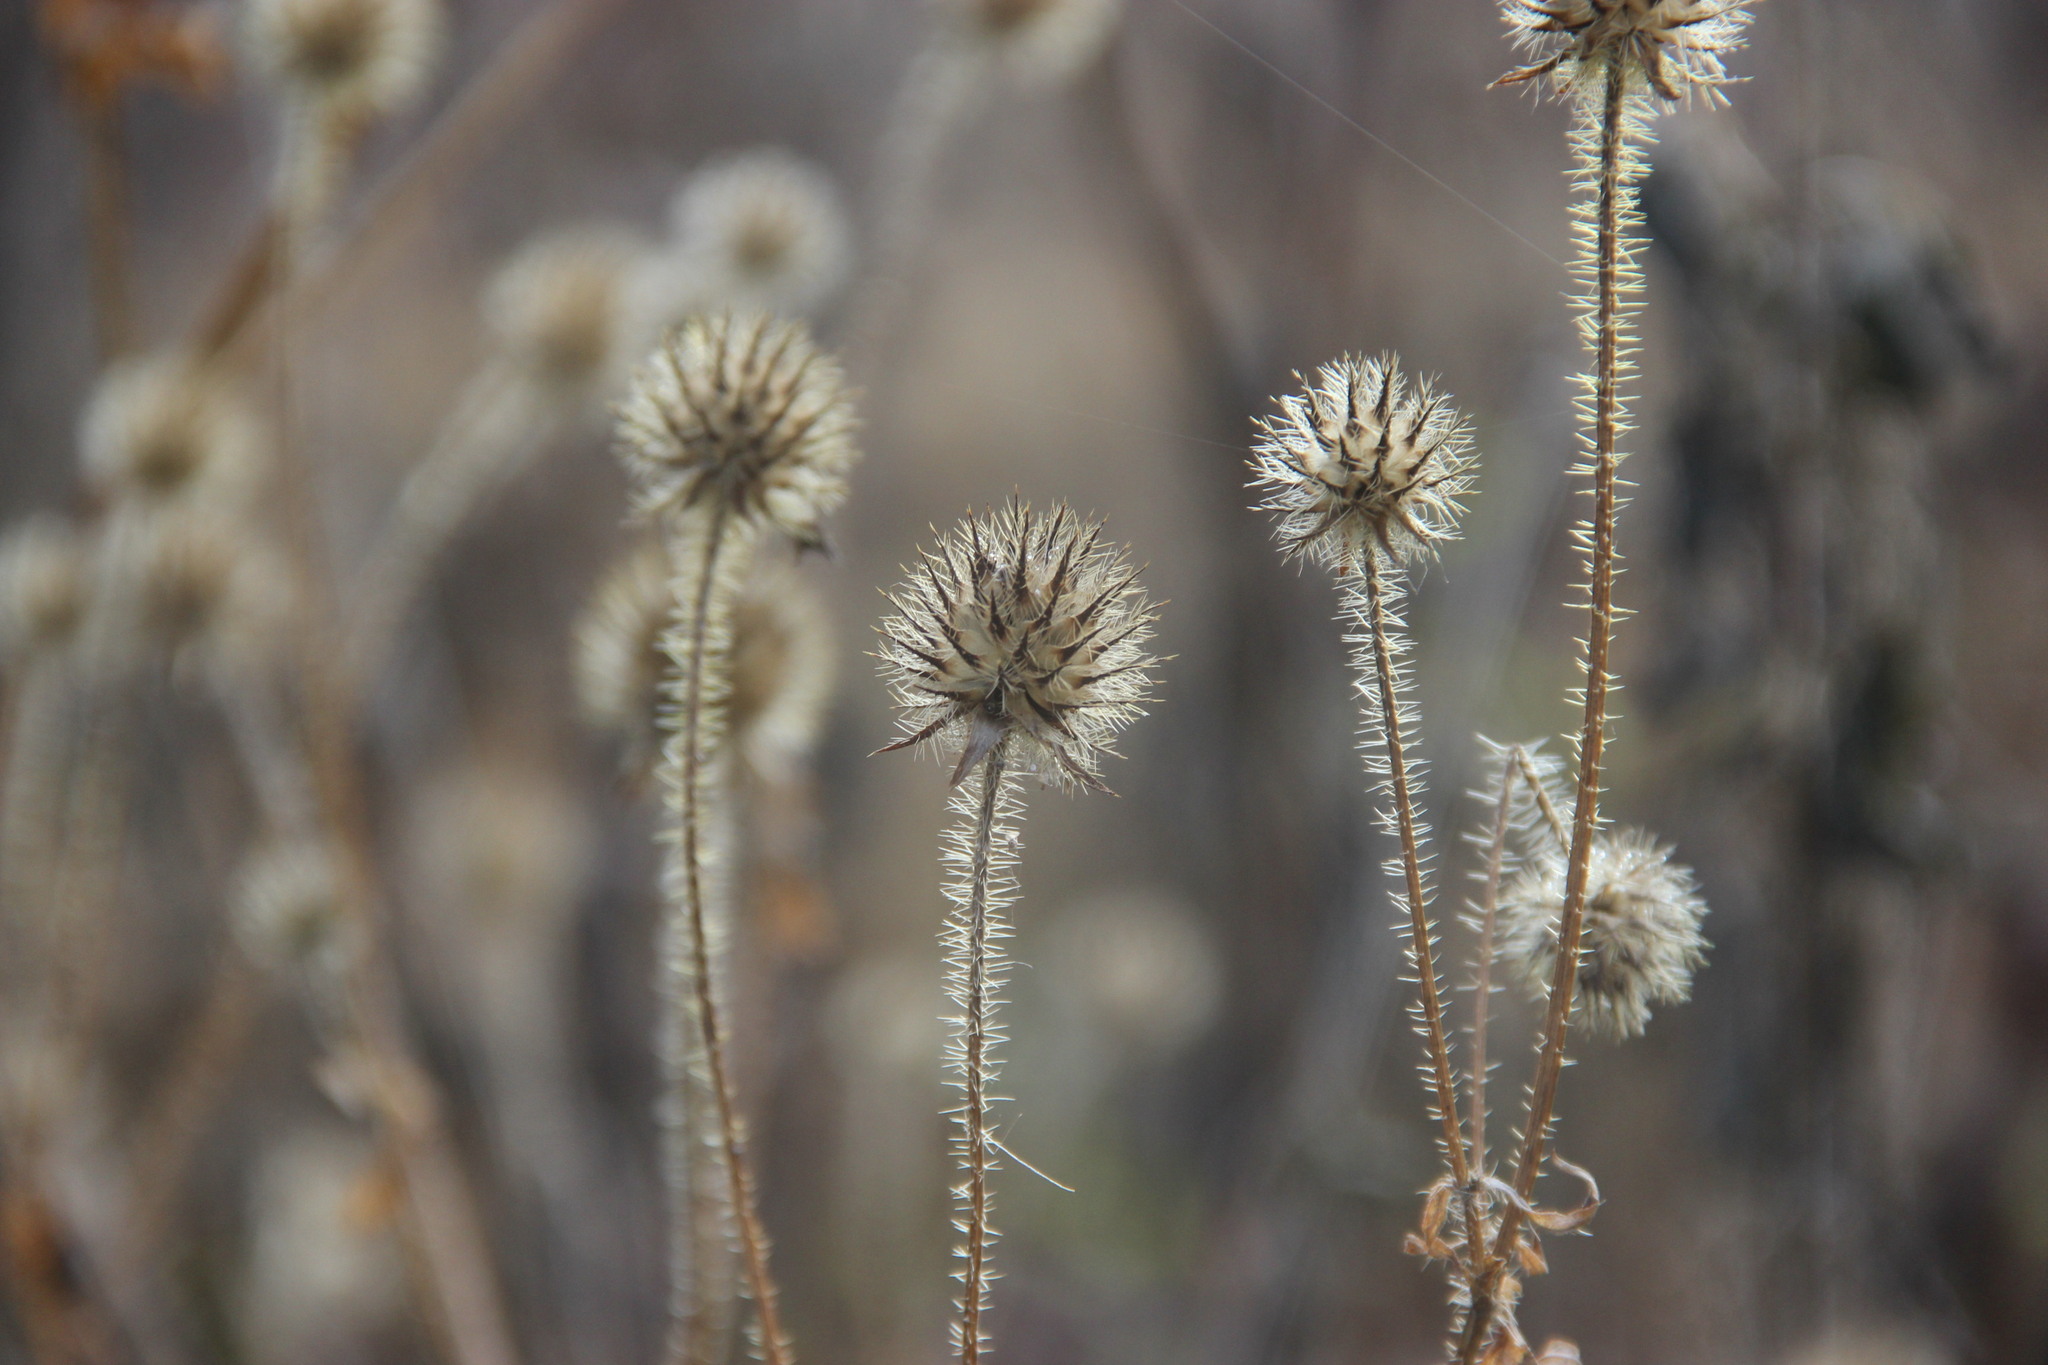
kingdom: Plantae
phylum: Tracheophyta
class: Magnoliopsida
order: Dipsacales
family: Caprifoliaceae
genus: Dipsacus
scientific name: Dipsacus pilosus
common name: Small teasel
